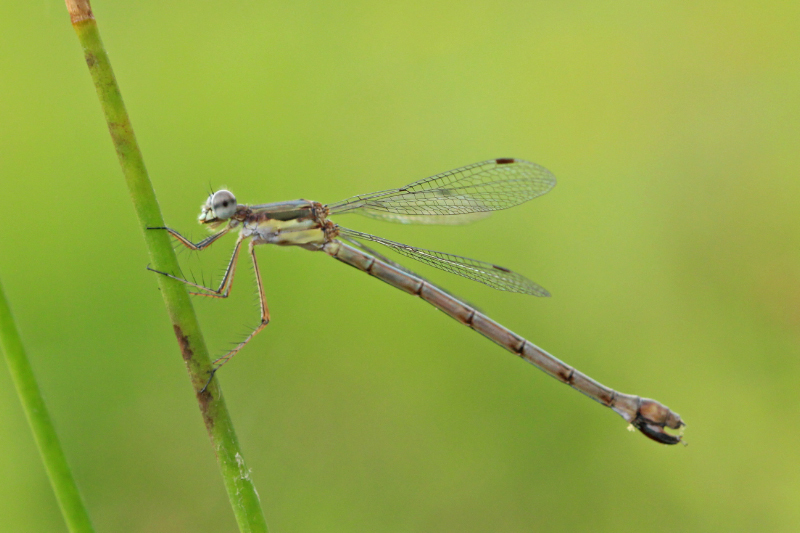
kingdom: Animalia
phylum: Arthropoda
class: Insecta
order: Odonata
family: Lestidae
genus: Lestes
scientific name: Lestes forcipatus
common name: Sweetflag spreadwing
